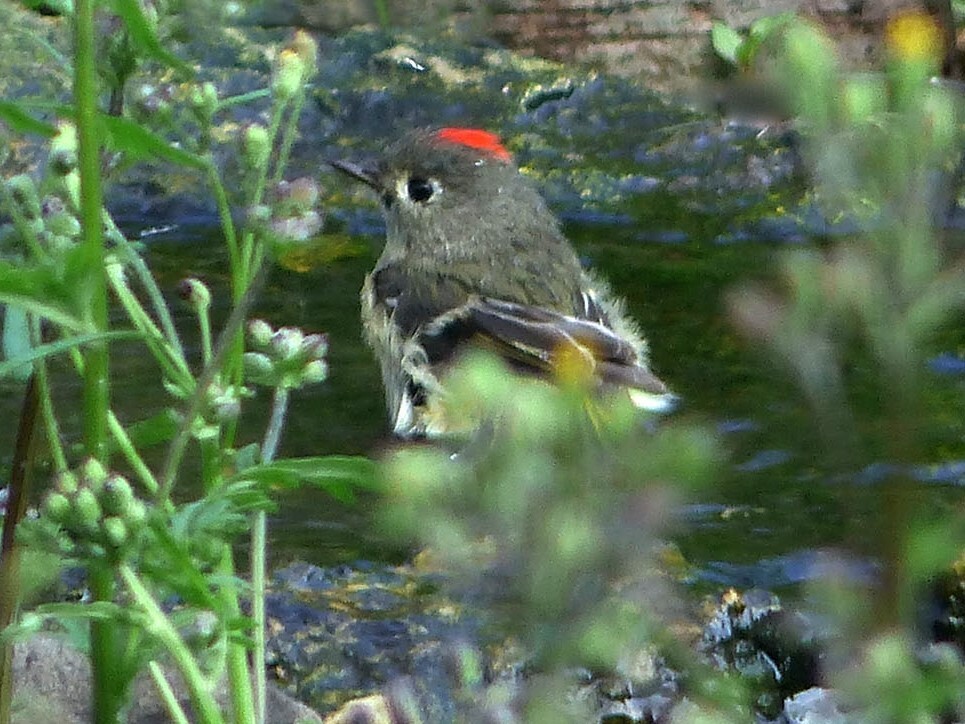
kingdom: Animalia
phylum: Chordata
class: Aves
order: Passeriformes
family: Regulidae
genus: Regulus
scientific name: Regulus calendula
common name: Ruby-crowned kinglet
